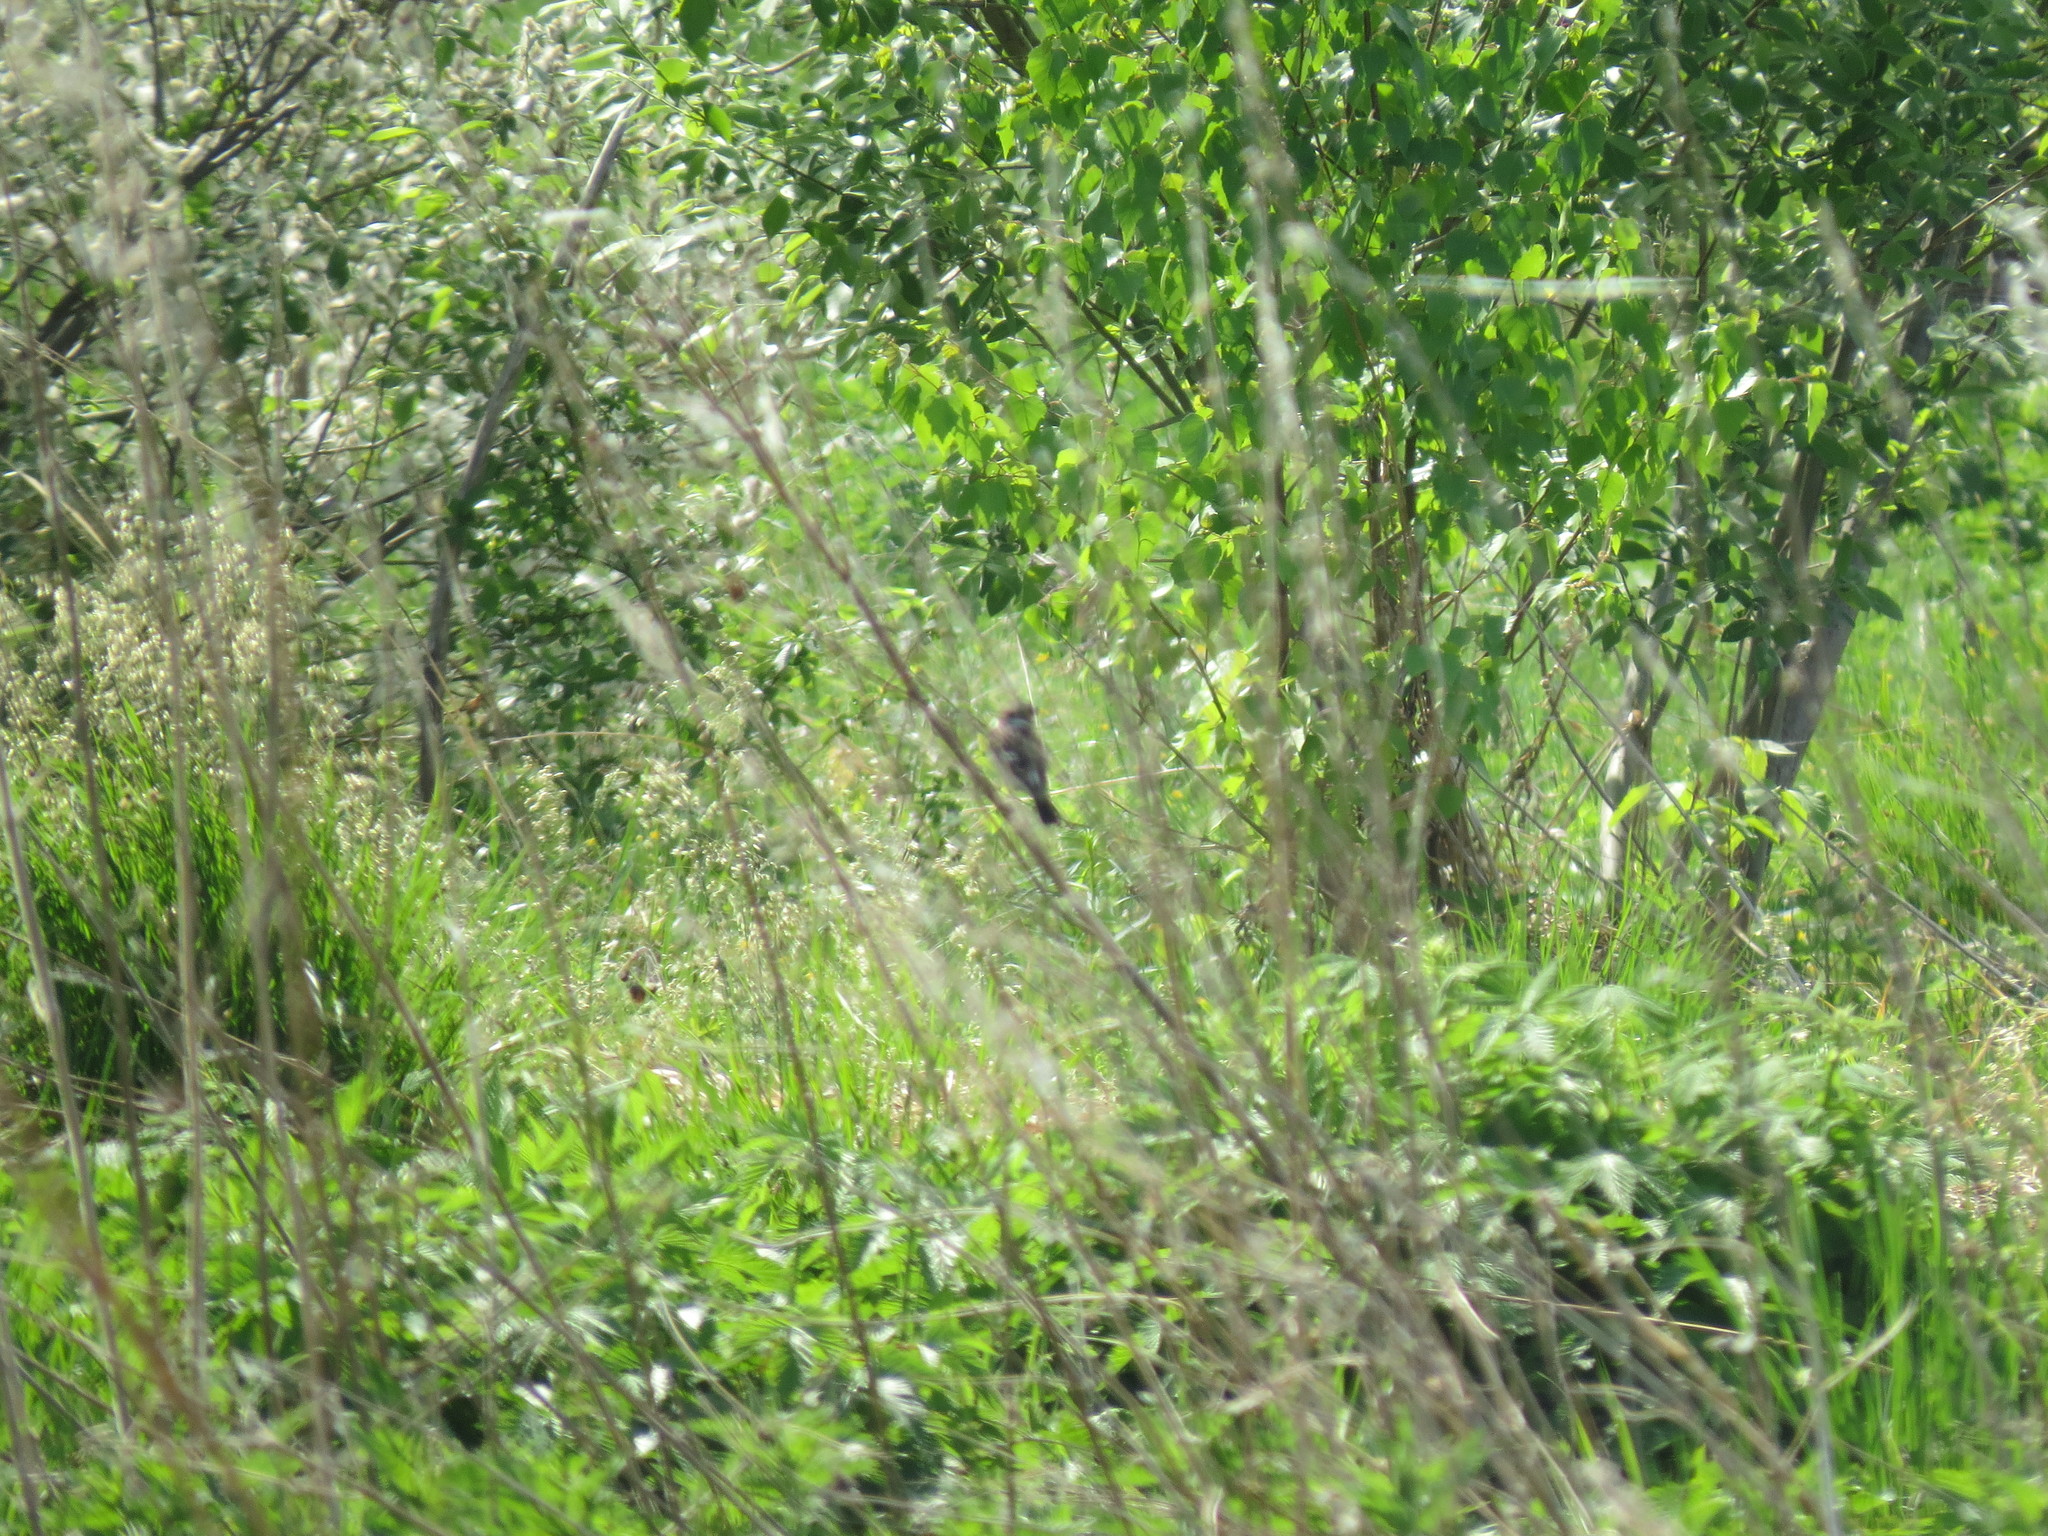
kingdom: Animalia
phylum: Chordata
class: Aves
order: Passeriformes
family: Muscicapidae
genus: Saxicola
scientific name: Saxicola maurus
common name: Siberian stonechat
